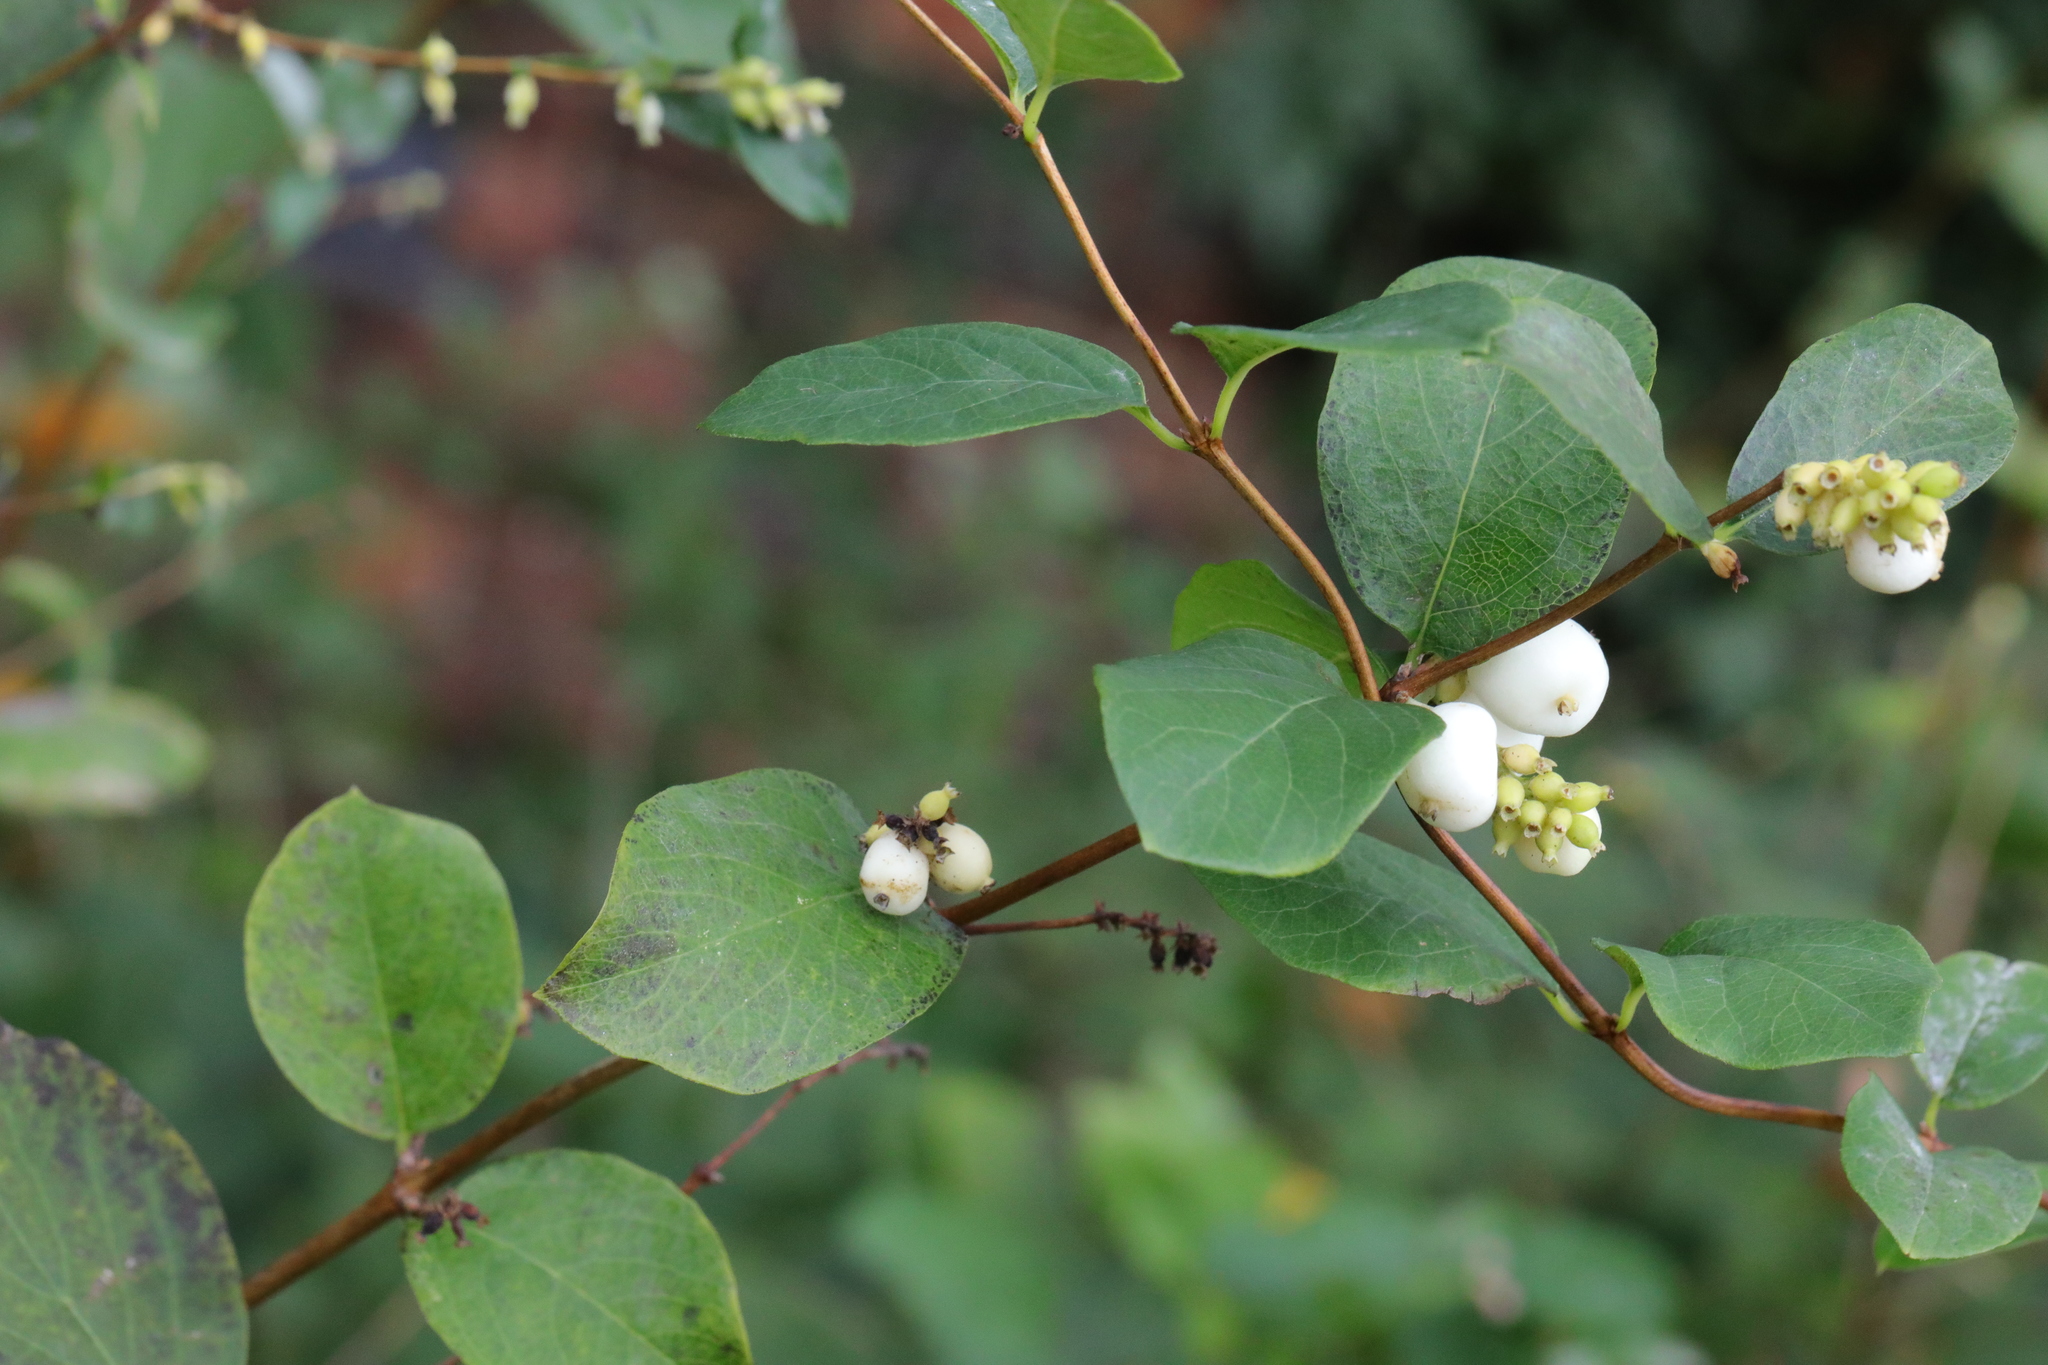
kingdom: Plantae
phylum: Tracheophyta
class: Magnoliopsida
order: Dipsacales
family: Caprifoliaceae
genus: Symphoricarpos
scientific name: Symphoricarpos albus
